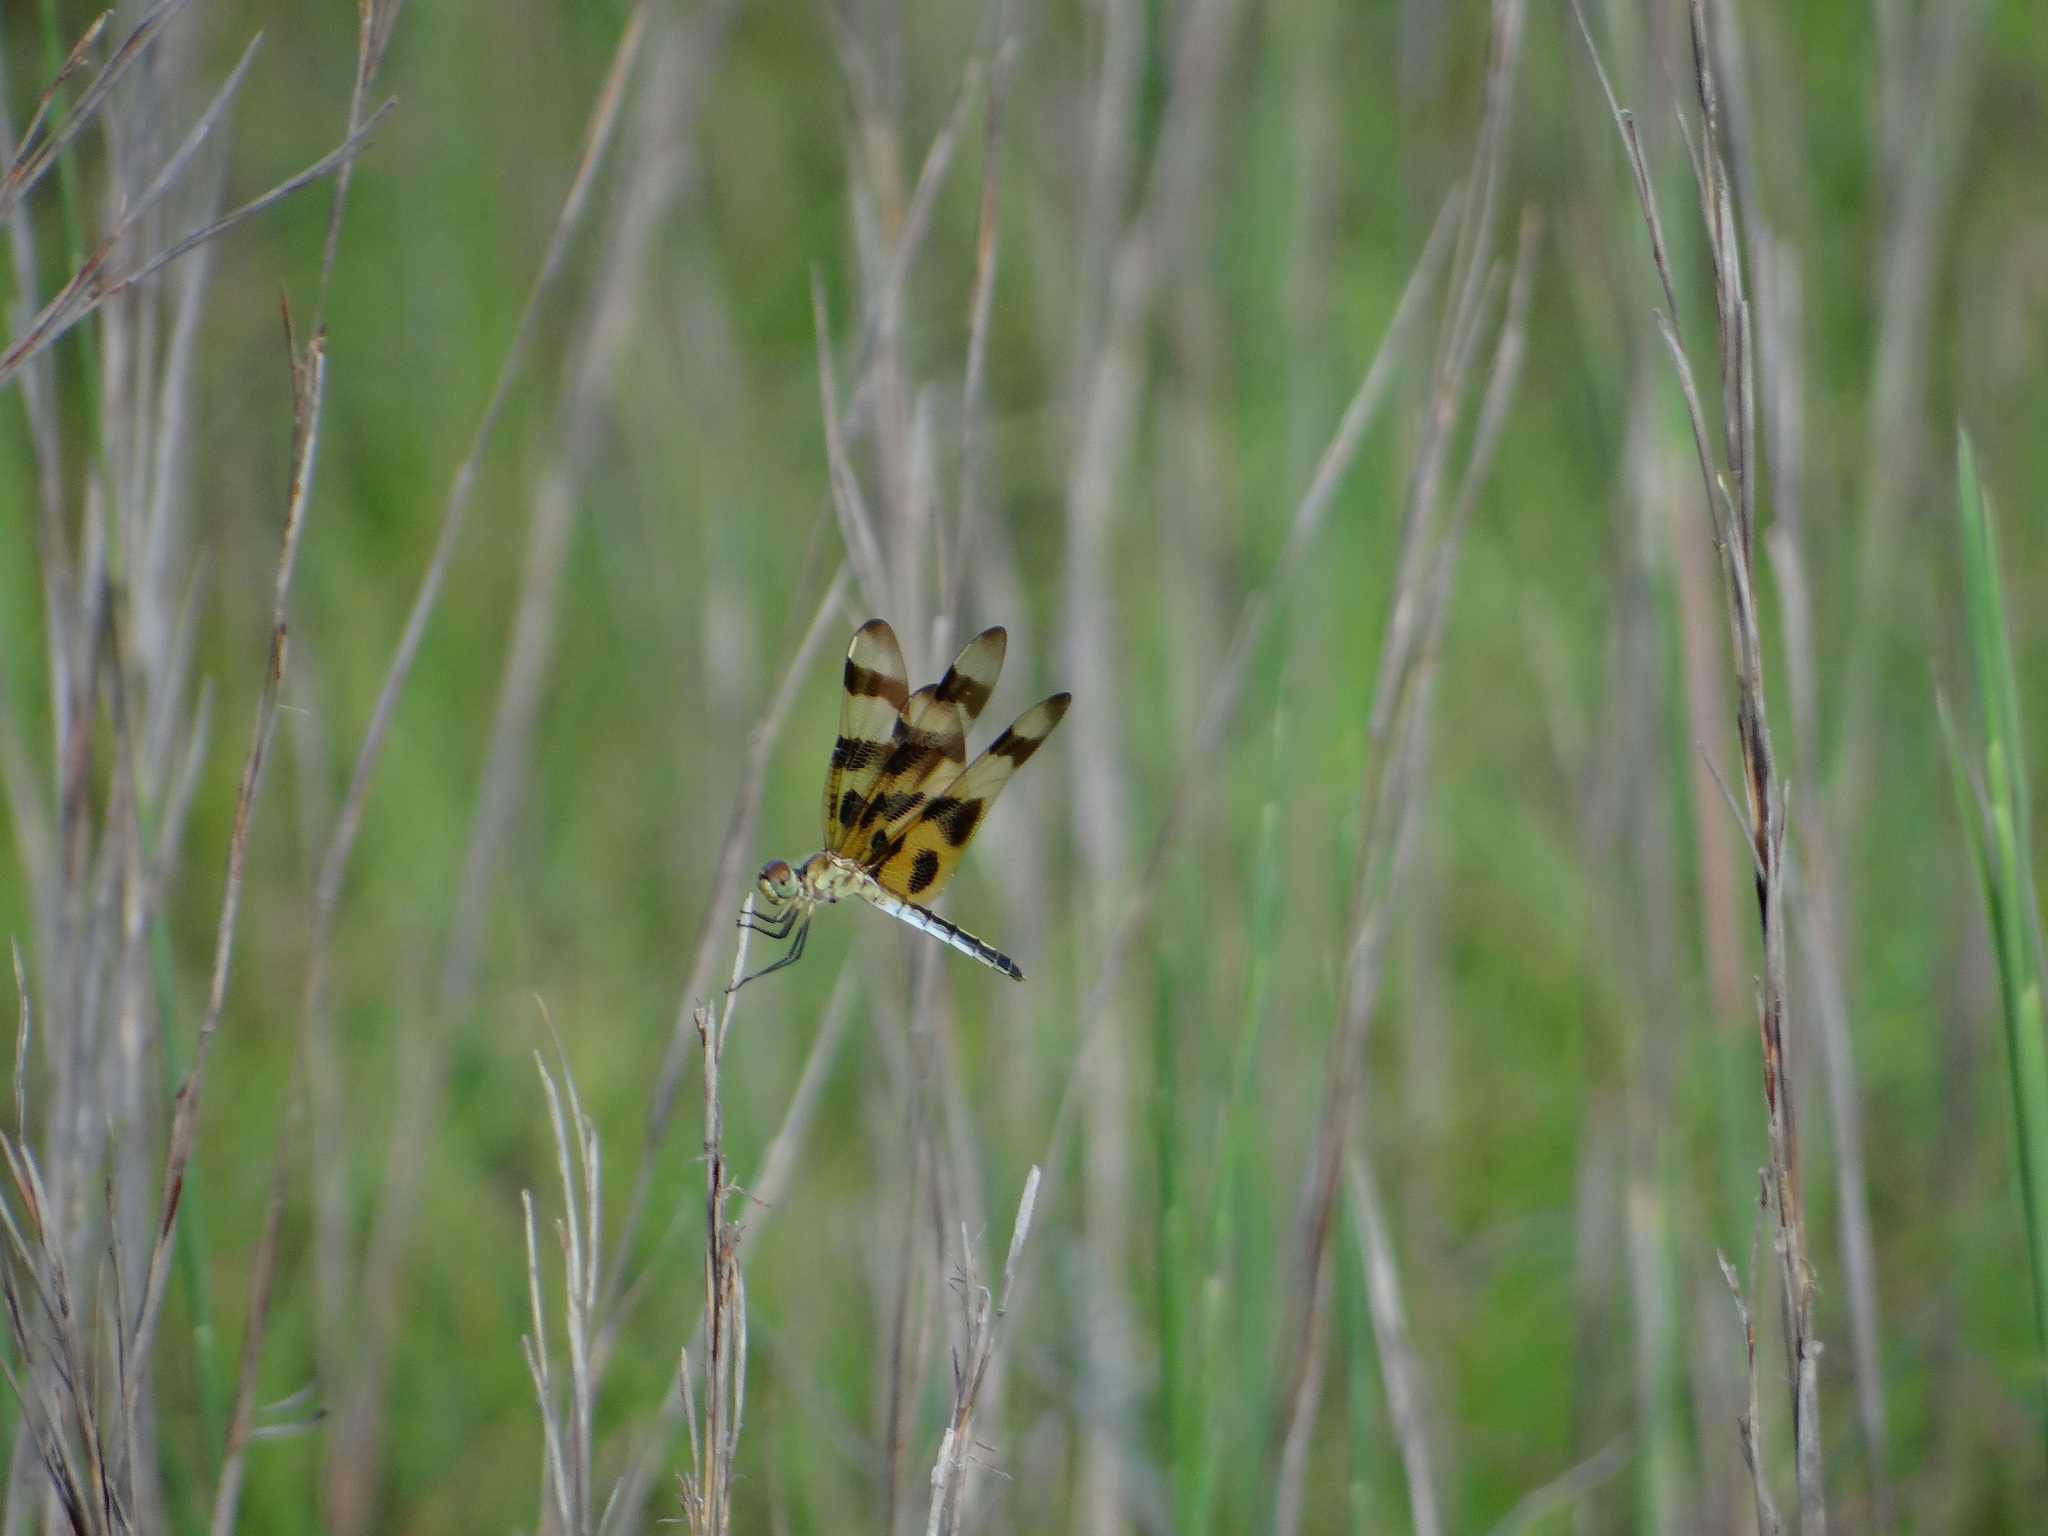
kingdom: Animalia
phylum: Arthropoda
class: Insecta
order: Odonata
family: Libellulidae
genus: Celithemis
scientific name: Celithemis eponina
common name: Halloween pennant
